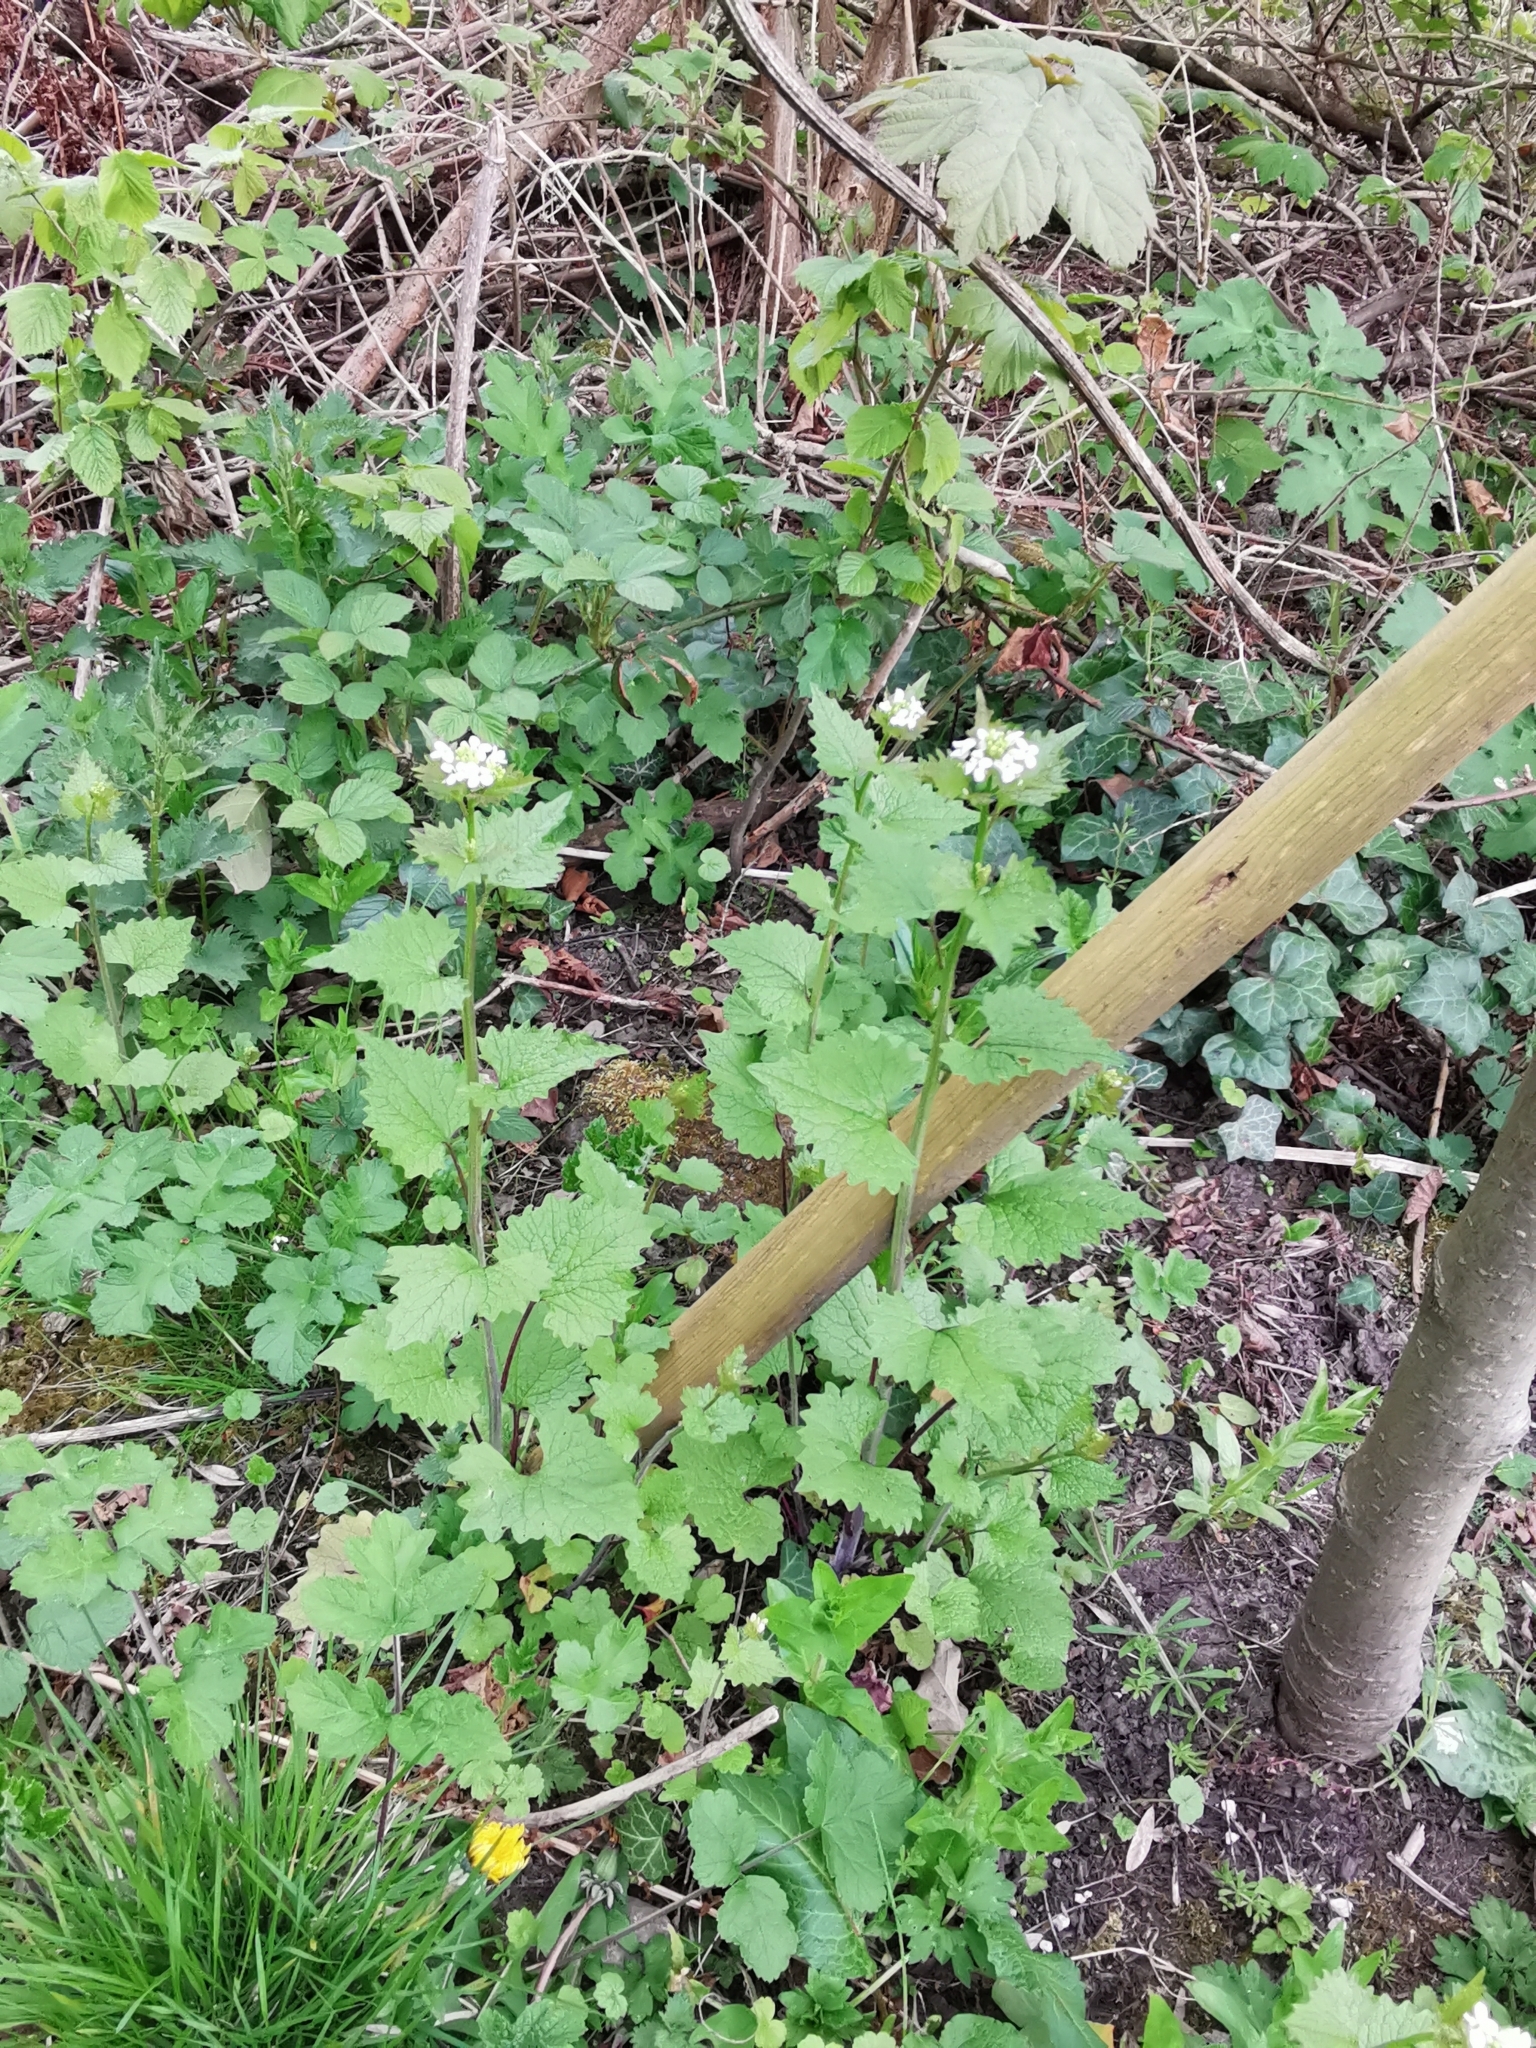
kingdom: Plantae
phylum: Tracheophyta
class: Magnoliopsida
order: Brassicales
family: Brassicaceae
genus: Alliaria
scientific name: Alliaria petiolata
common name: Garlic mustard
